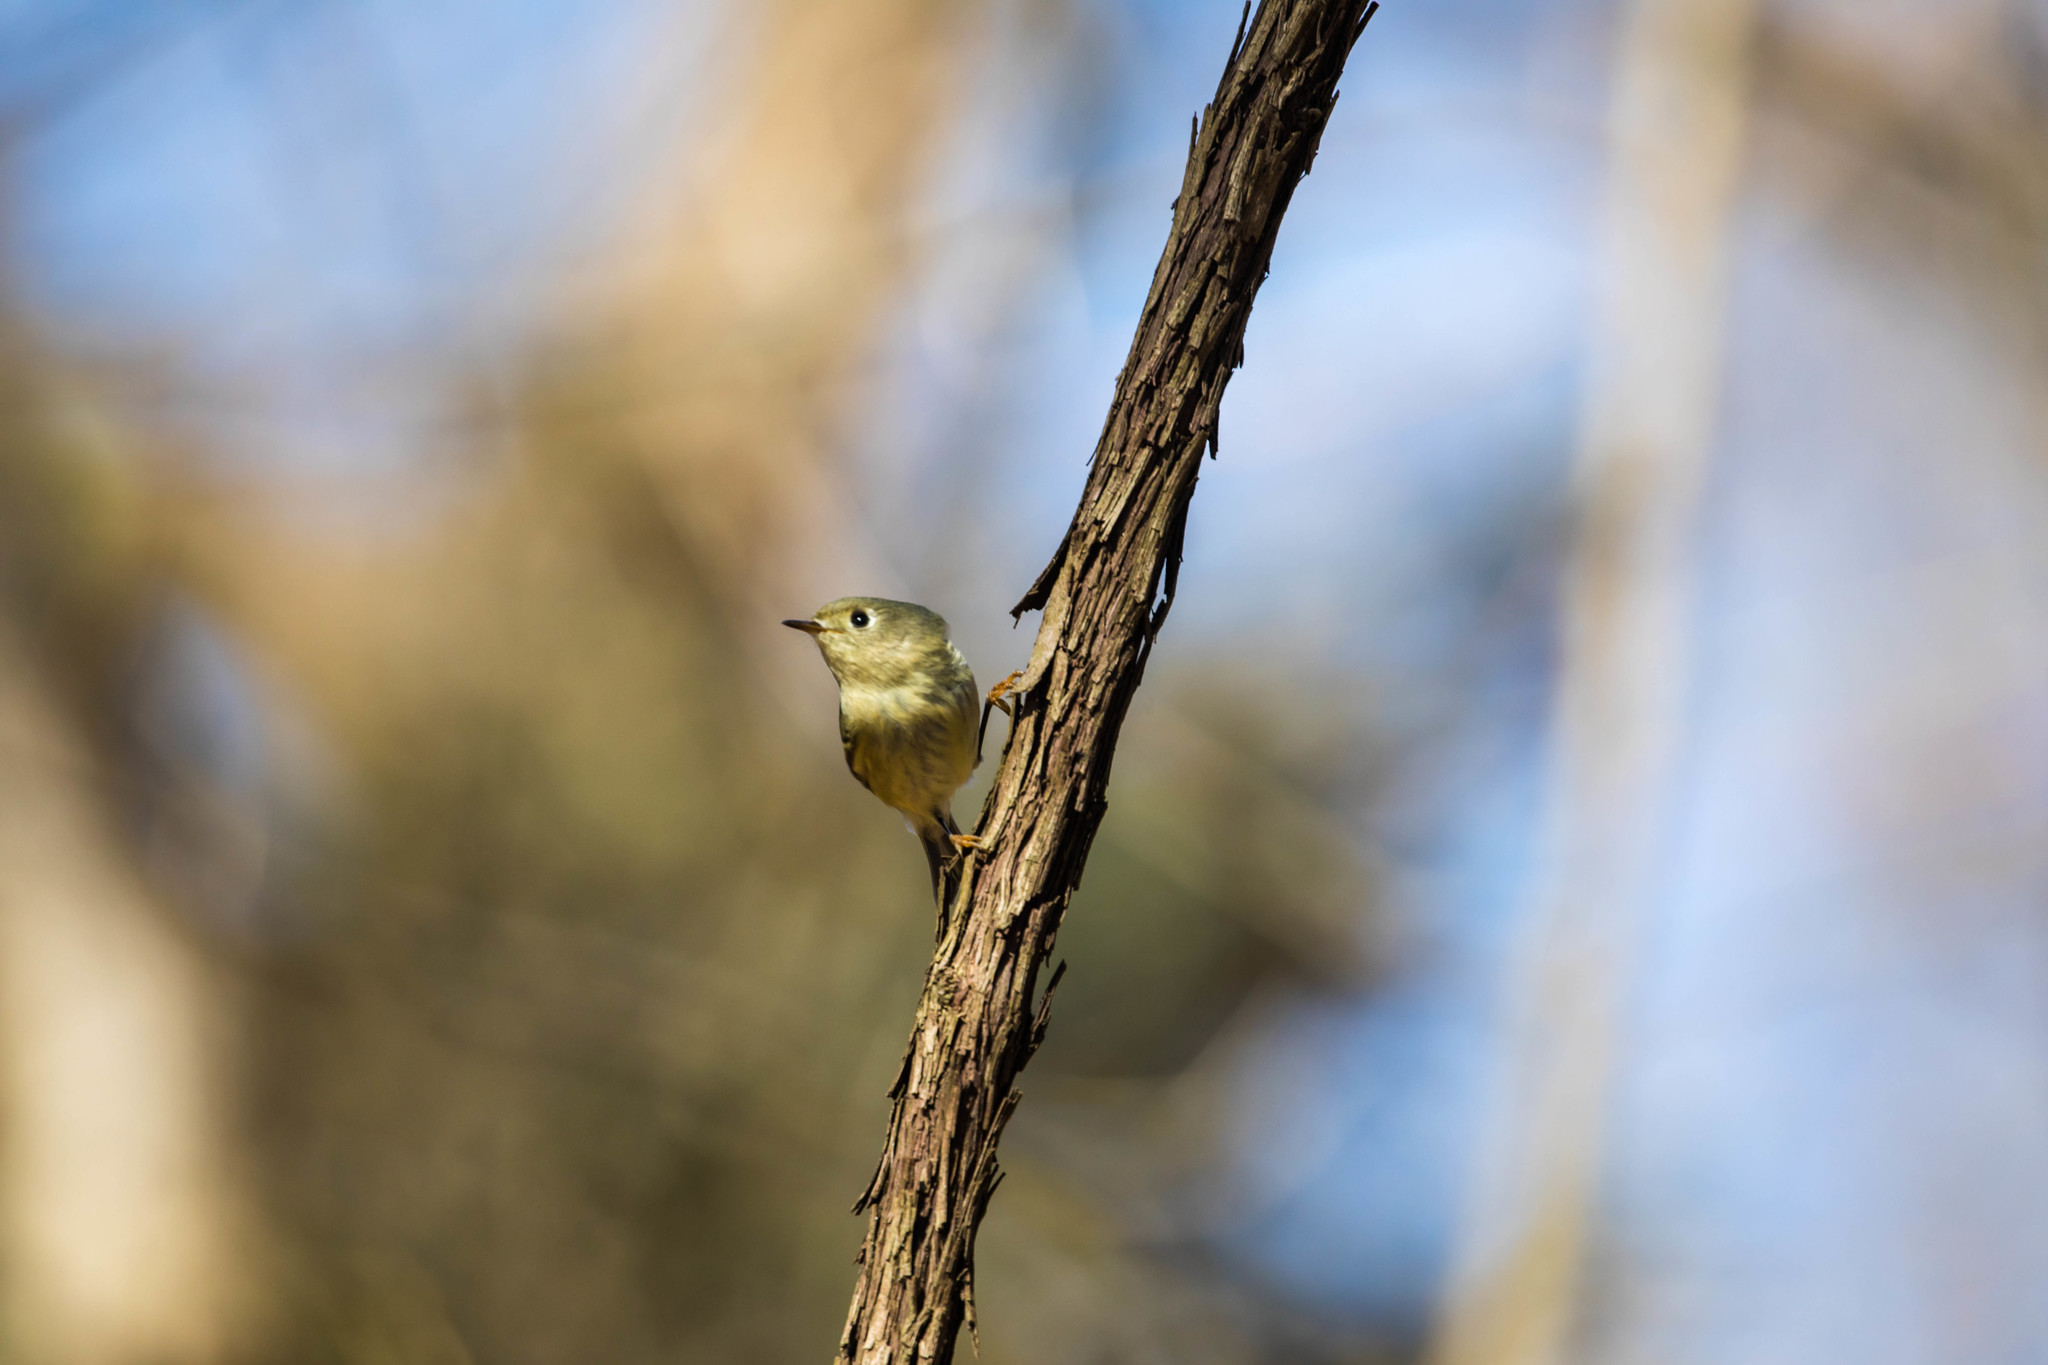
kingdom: Animalia
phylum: Chordata
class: Aves
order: Passeriformes
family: Regulidae
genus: Regulus
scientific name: Regulus calendula
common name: Ruby-crowned kinglet
